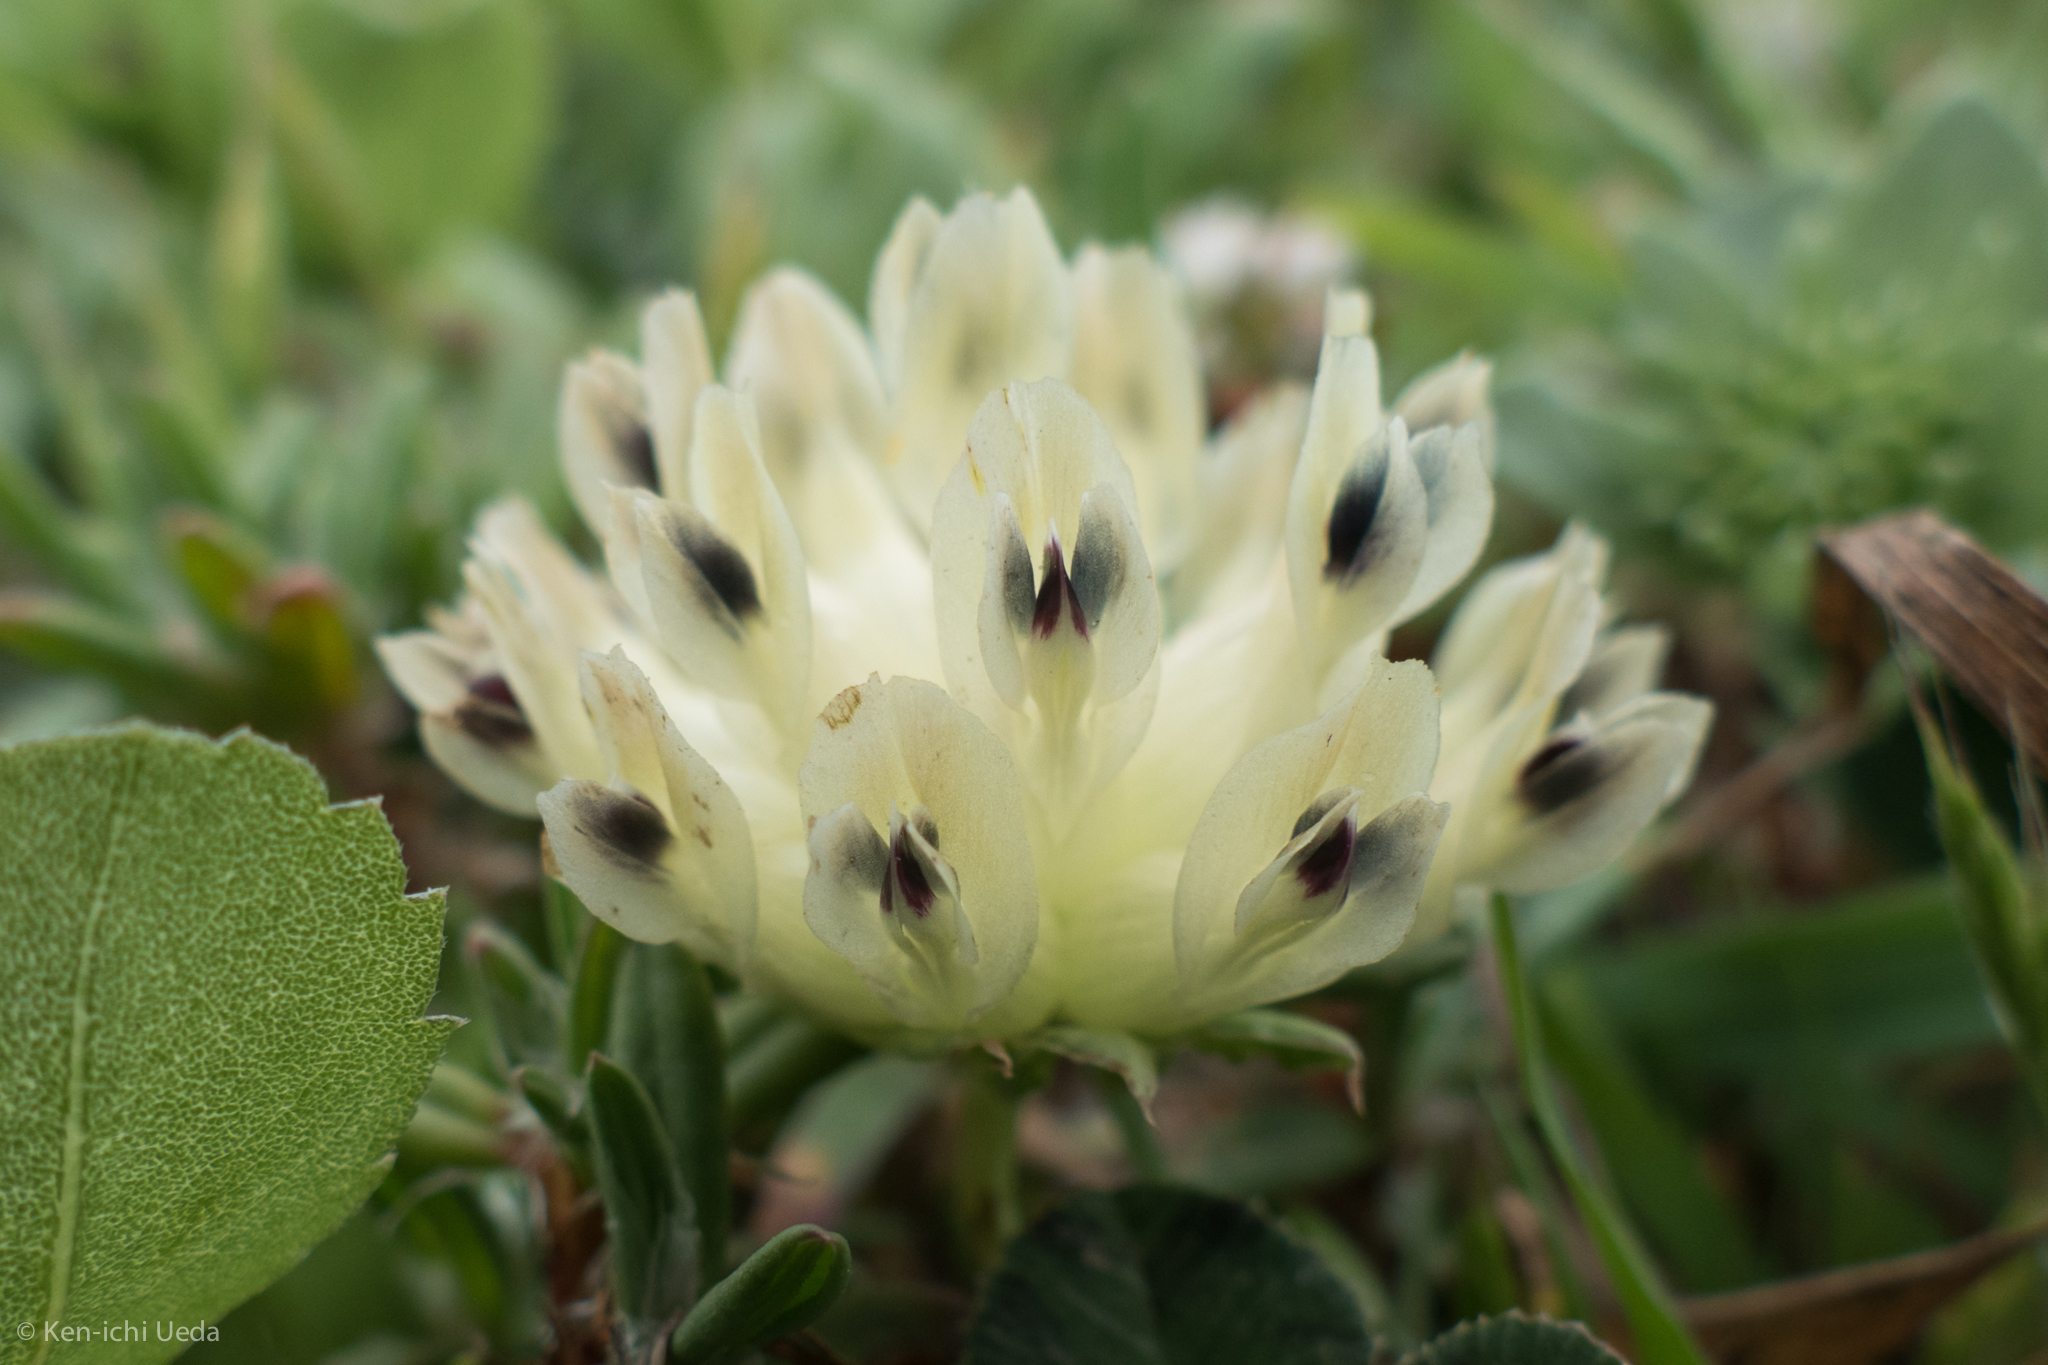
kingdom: Plantae
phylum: Tracheophyta
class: Magnoliopsida
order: Fabales
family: Fabaceae
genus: Trifolium
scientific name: Trifolium fucatum
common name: Puff clover
